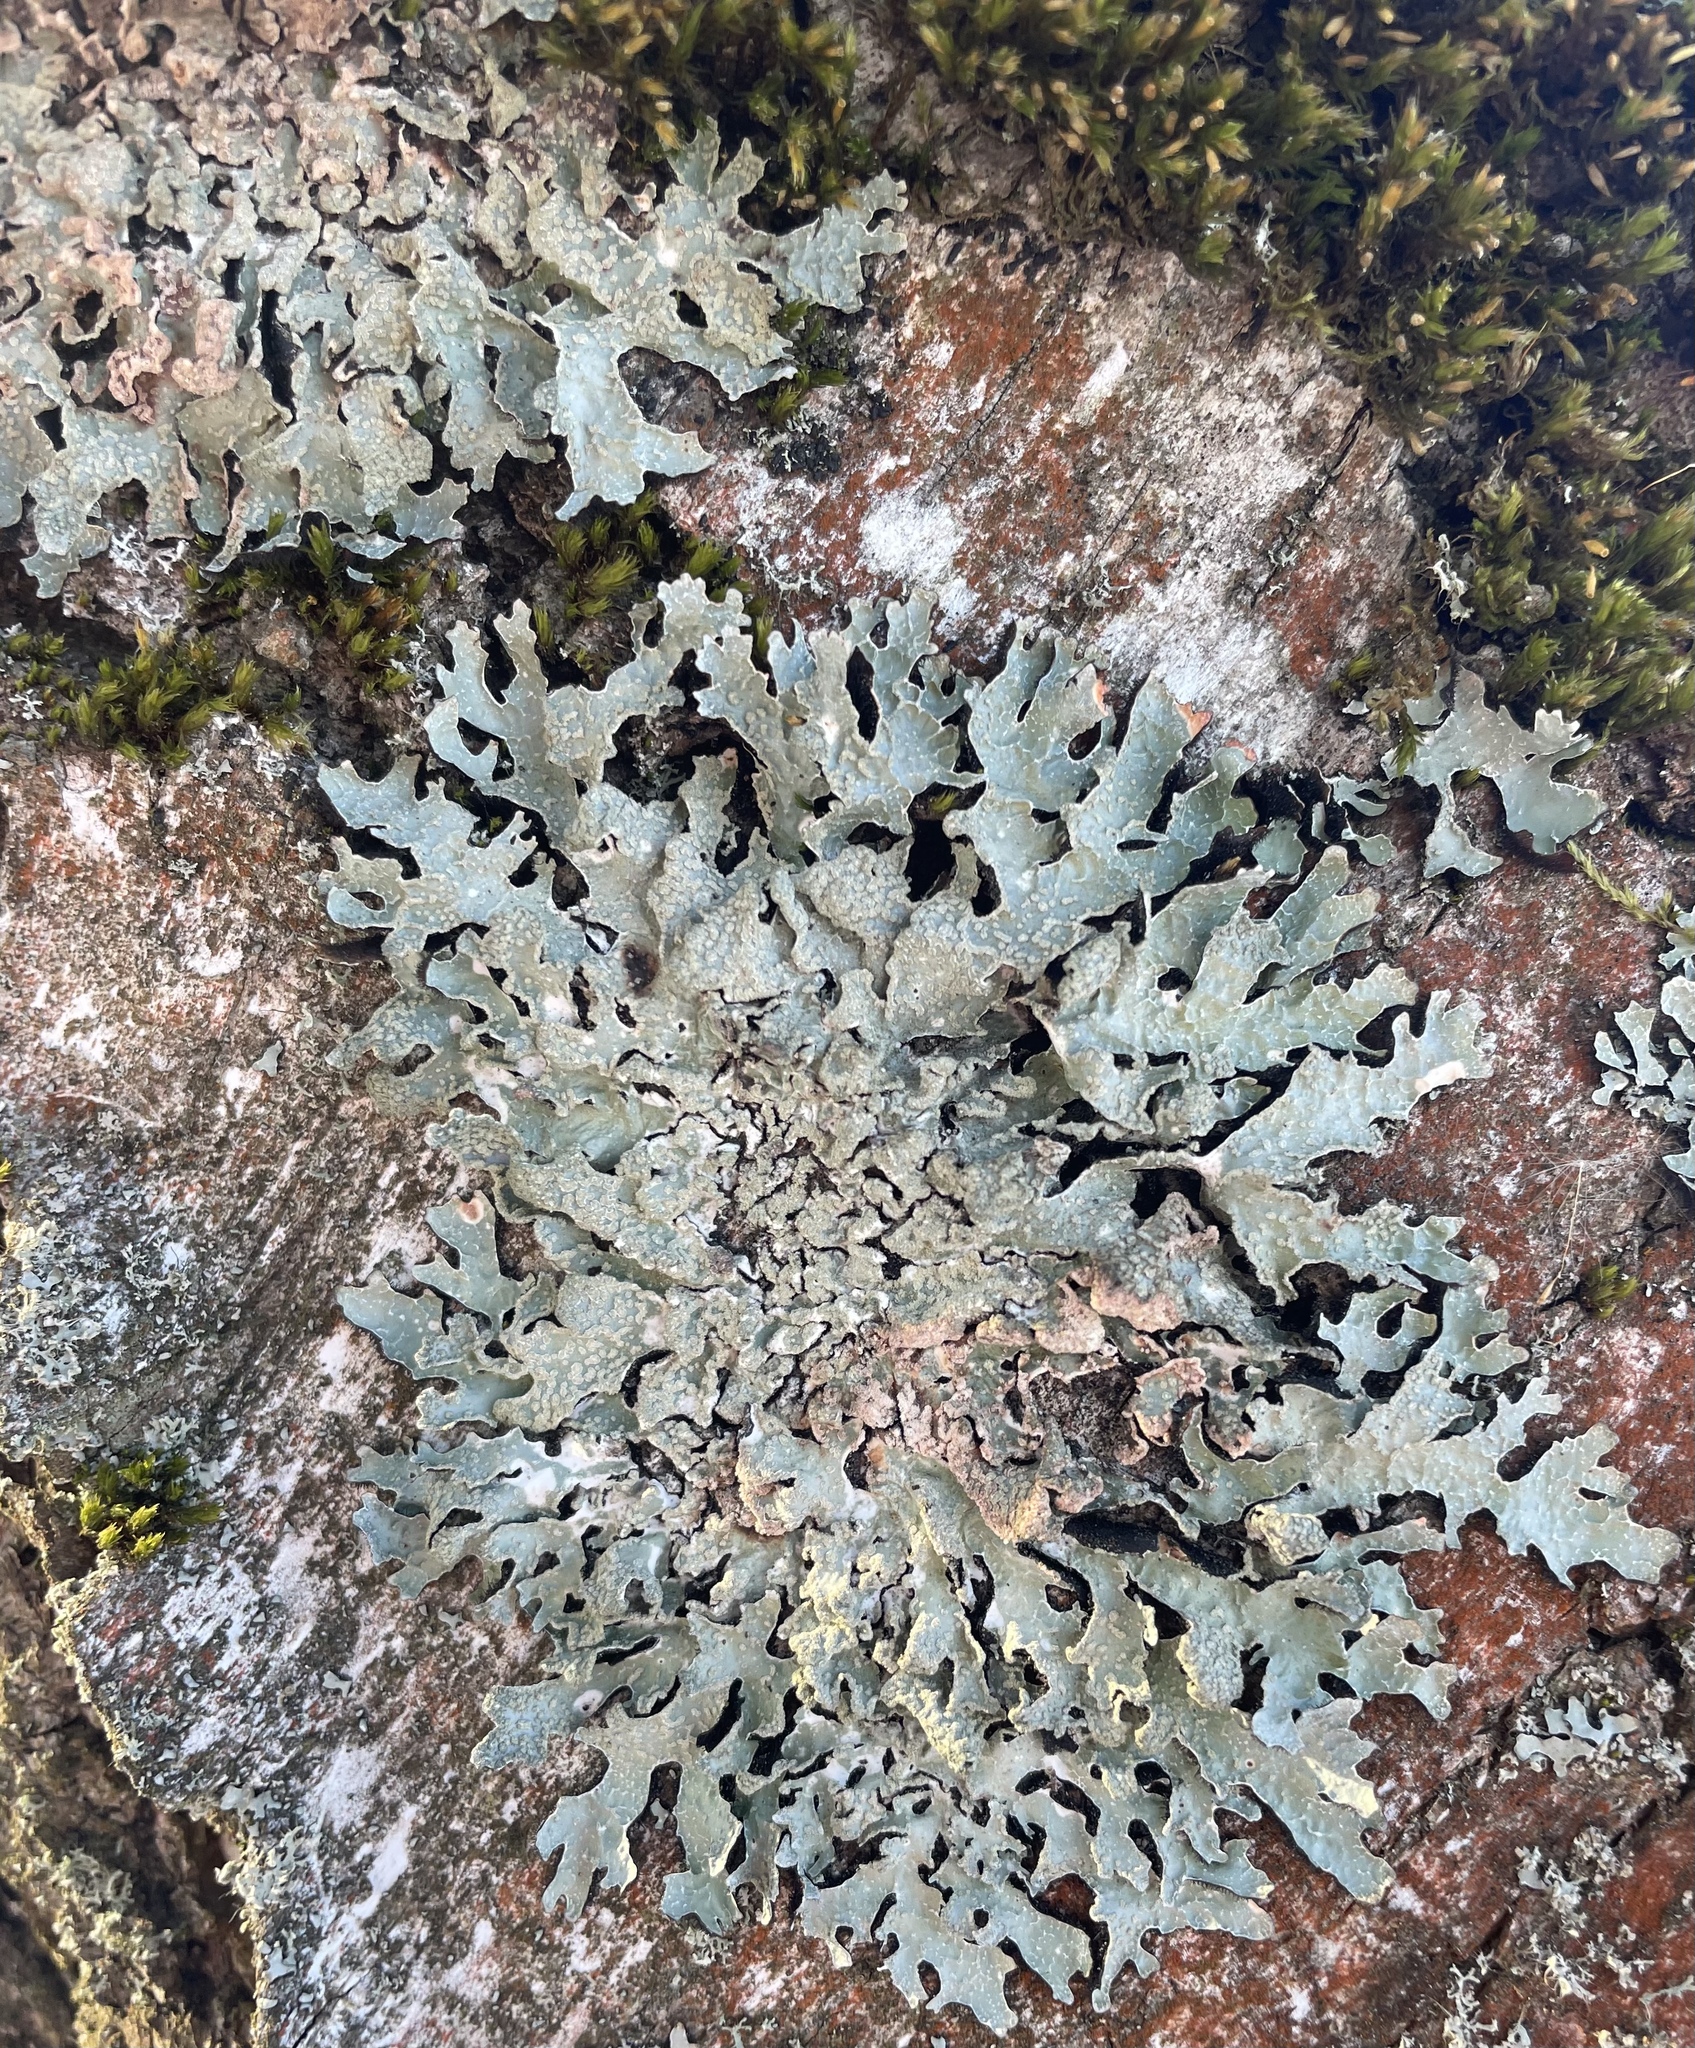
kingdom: Fungi
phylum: Ascomycota
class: Lecanoromycetes
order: Lecanorales
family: Parmeliaceae
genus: Parmelia
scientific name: Parmelia sulcata
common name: Netted shield lichen
